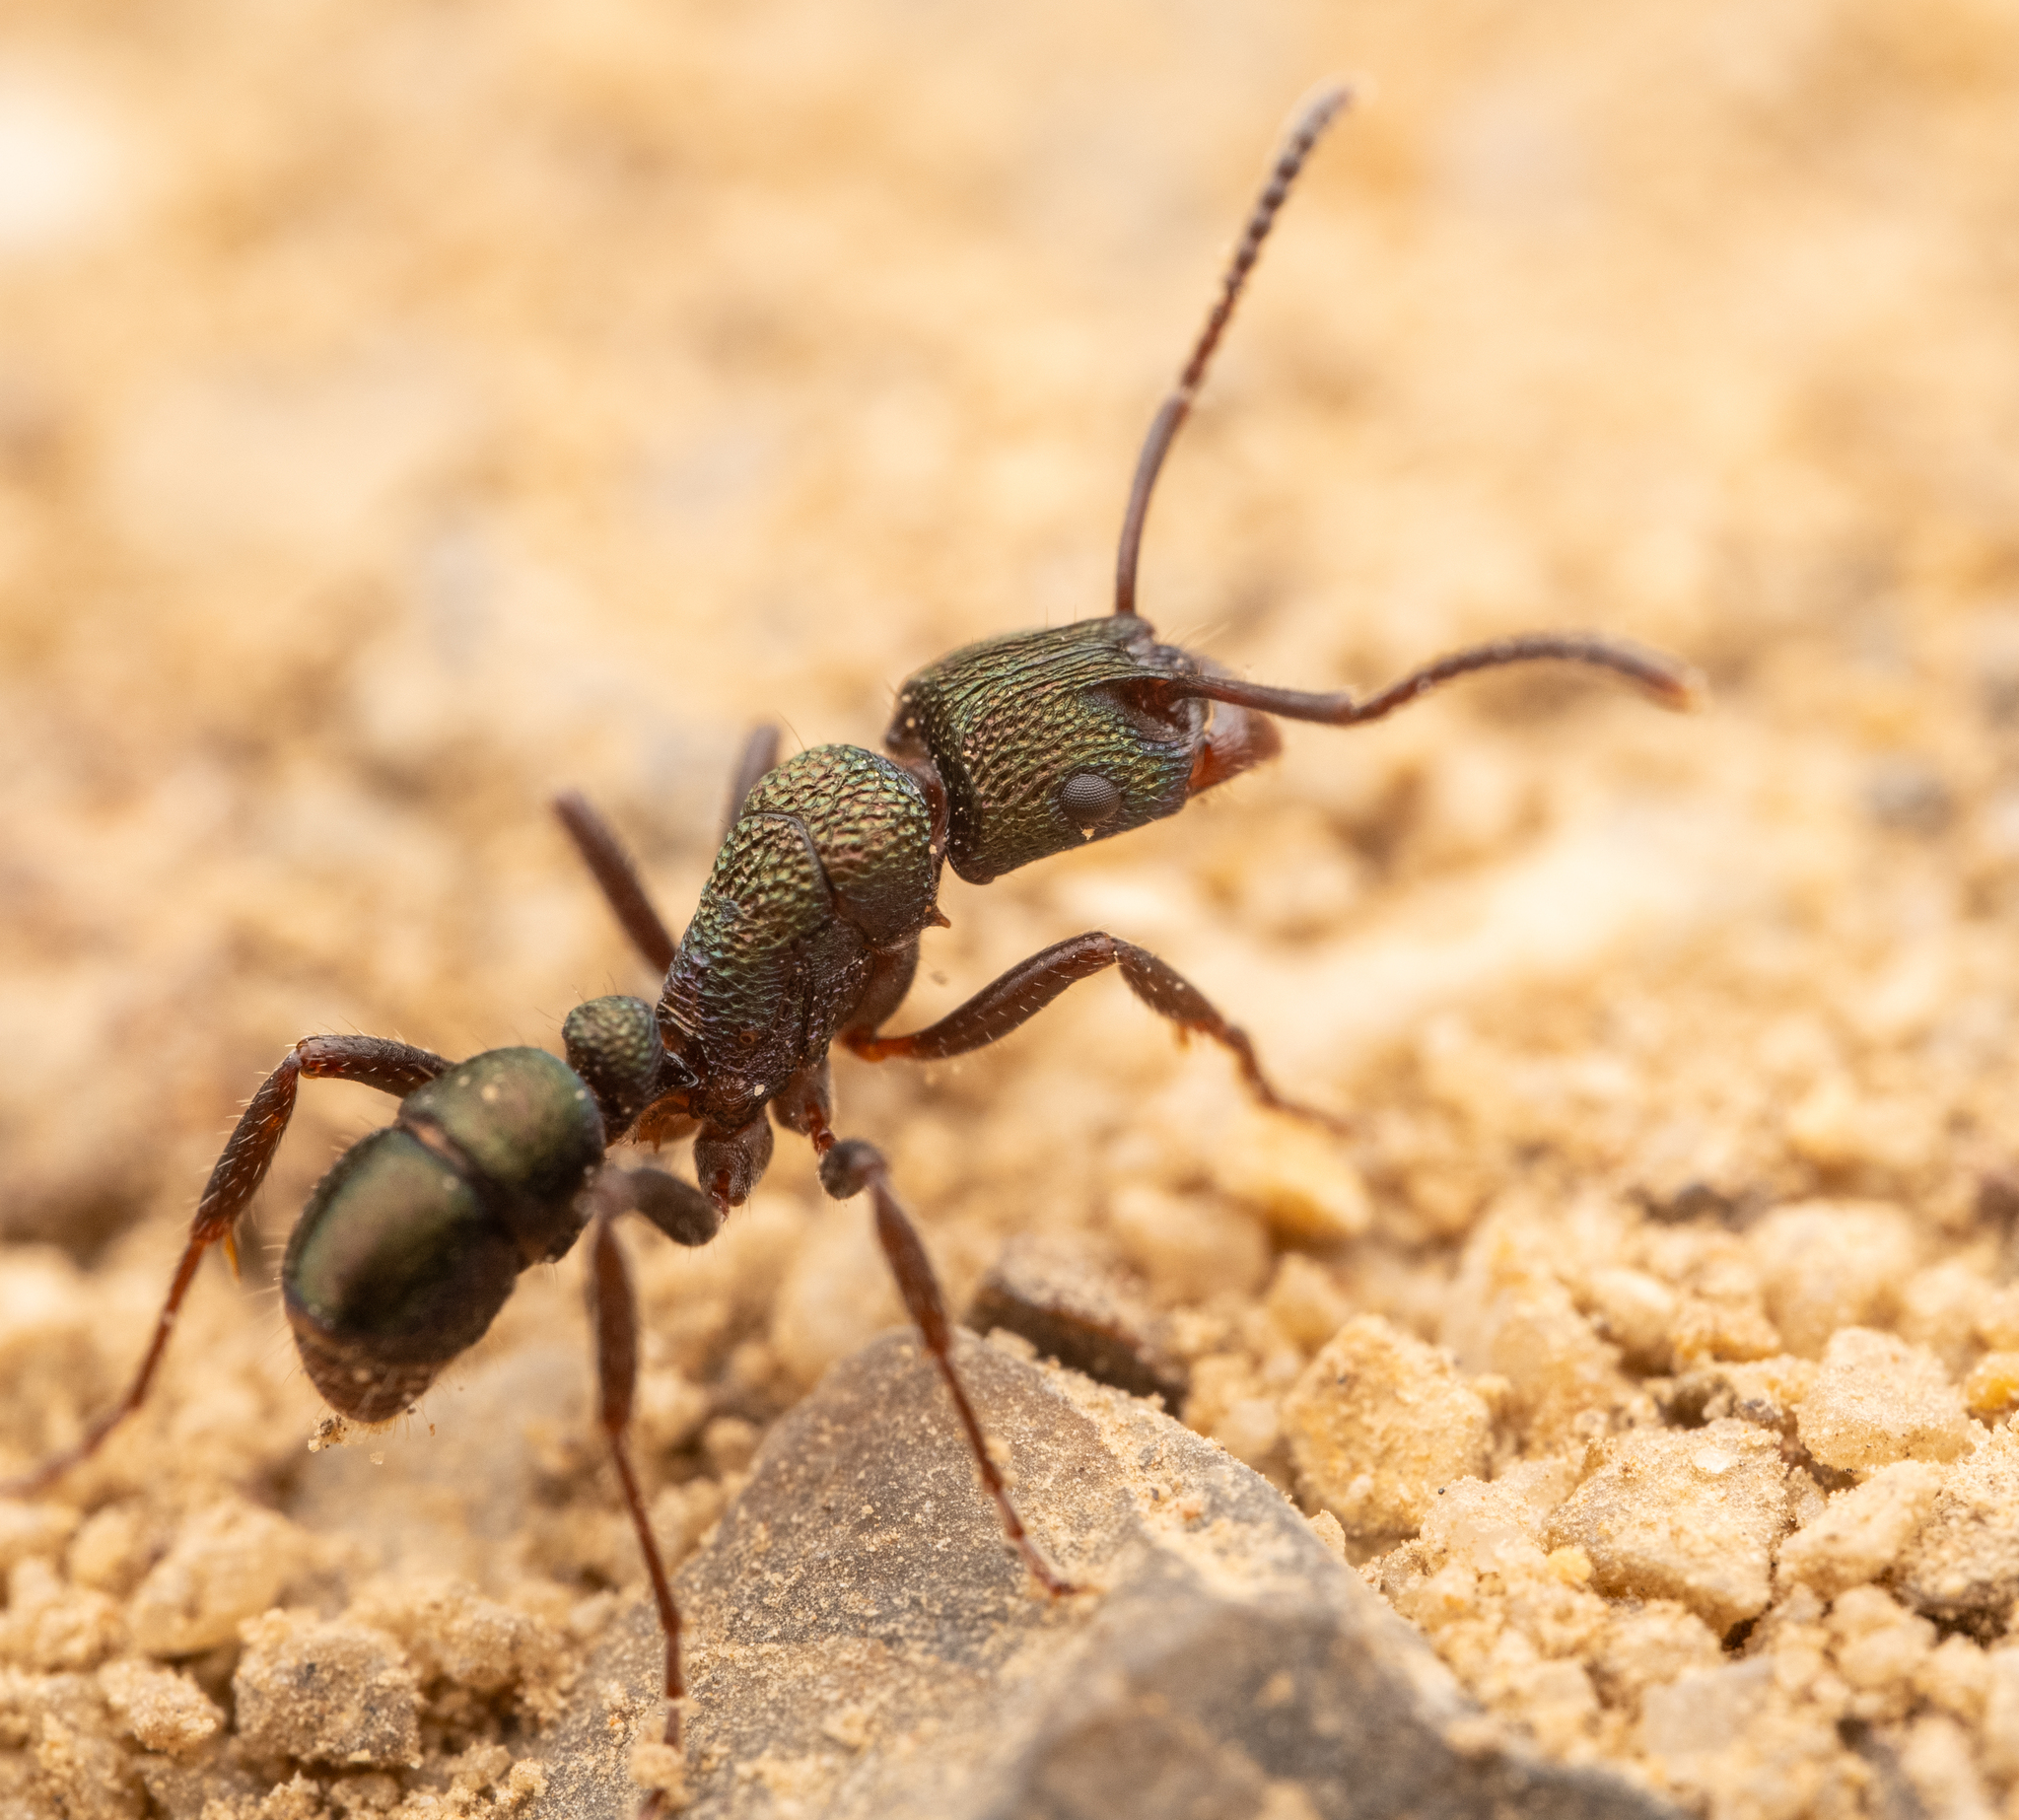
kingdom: Animalia
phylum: Arthropoda
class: Insecta
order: Hymenoptera
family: Formicidae
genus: Rhytidoponera
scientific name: Rhytidoponera metallica
